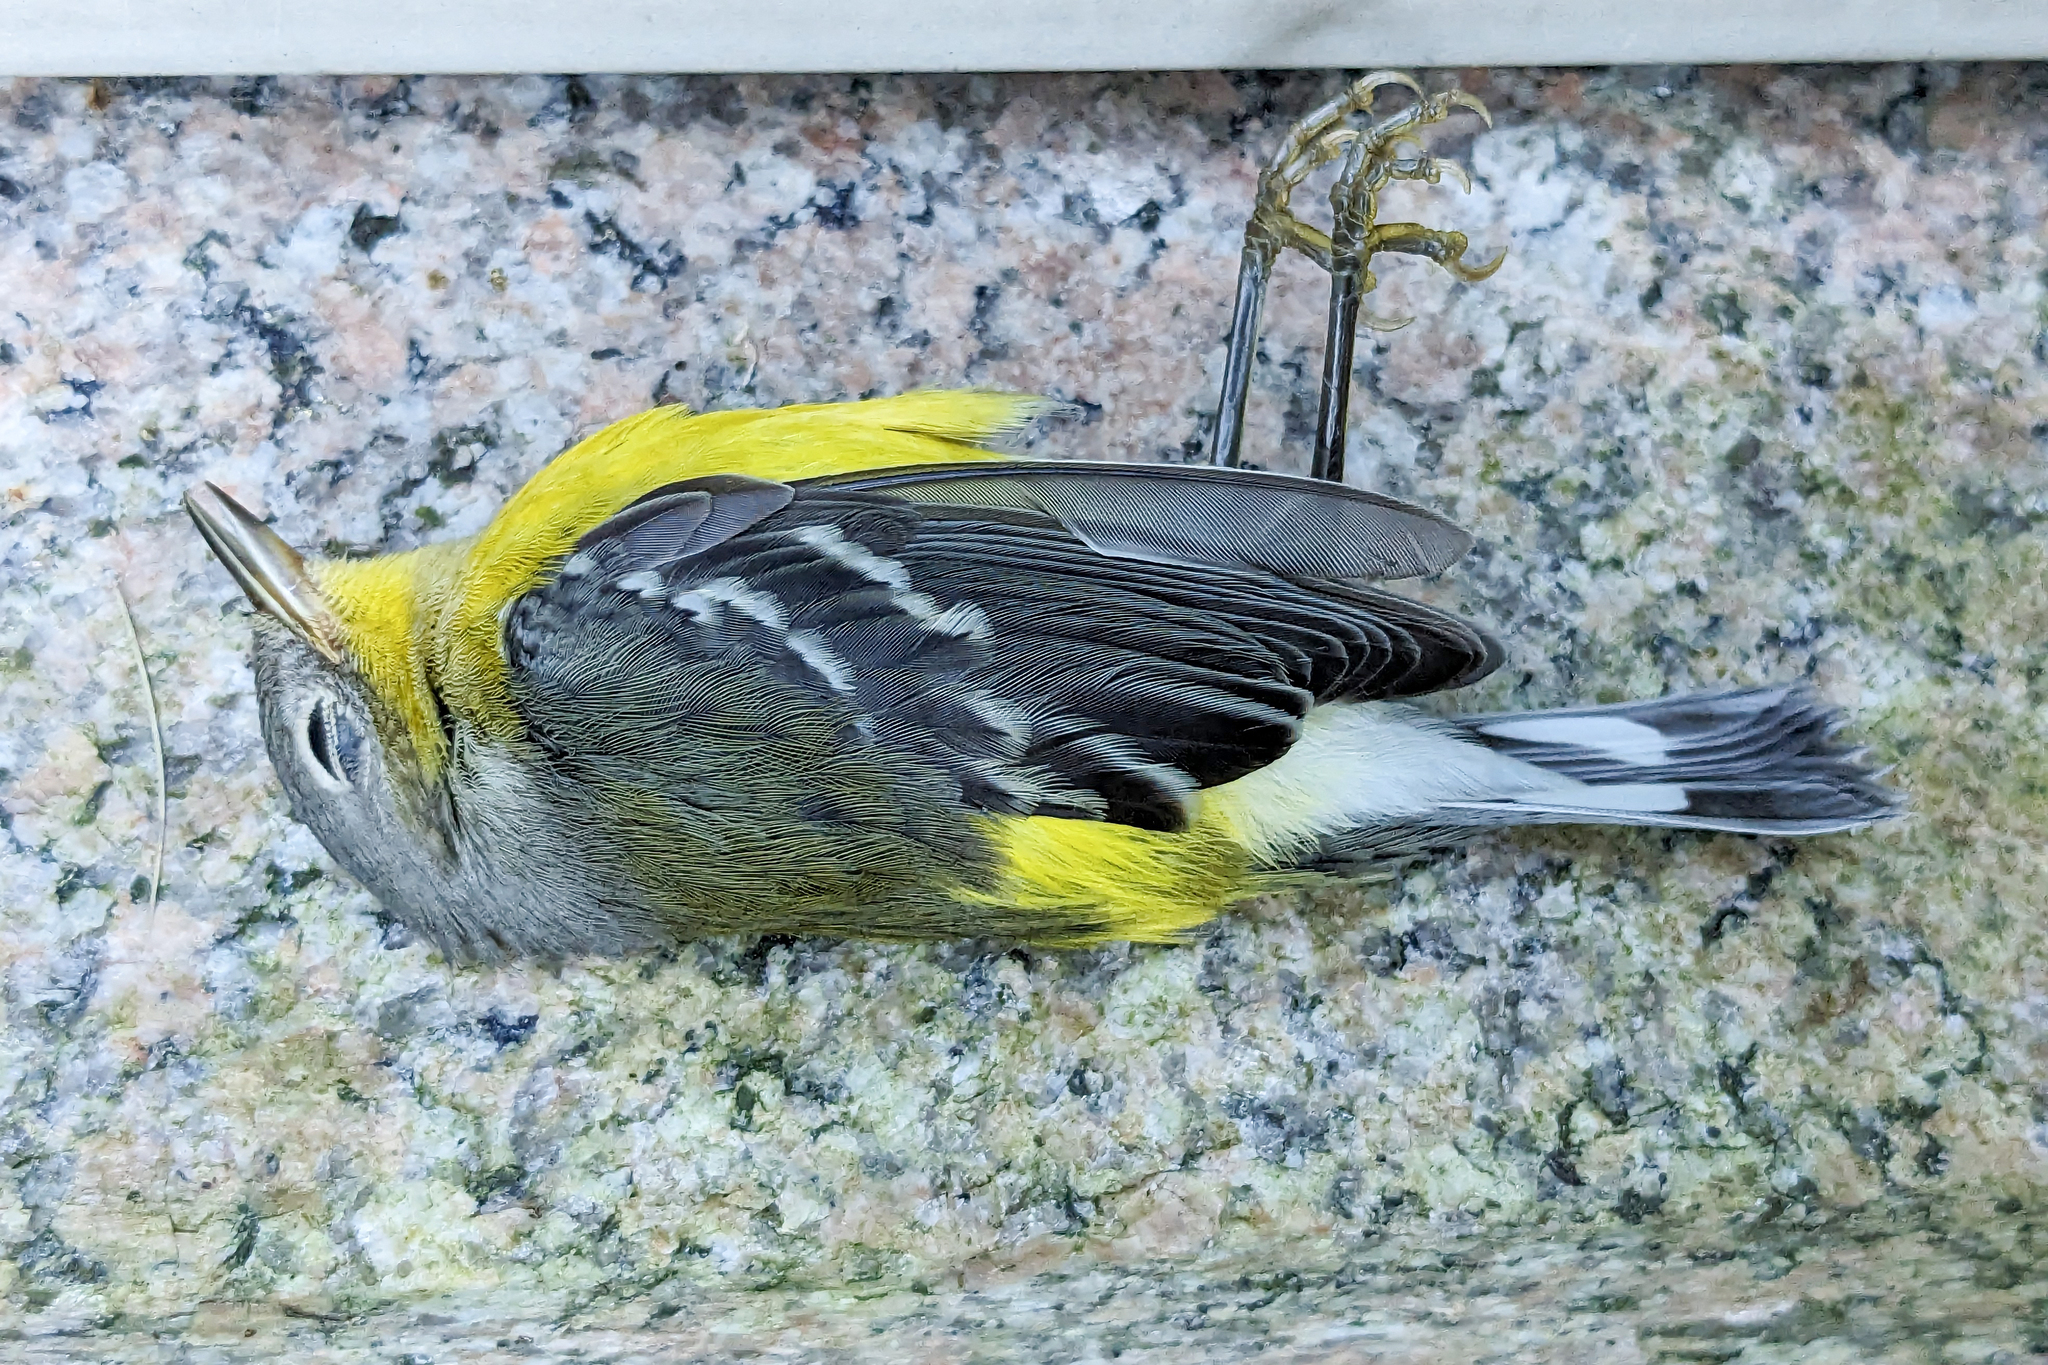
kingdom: Animalia
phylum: Chordata
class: Aves
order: Passeriformes
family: Parulidae
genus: Setophaga
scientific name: Setophaga magnolia
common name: Magnolia warbler
